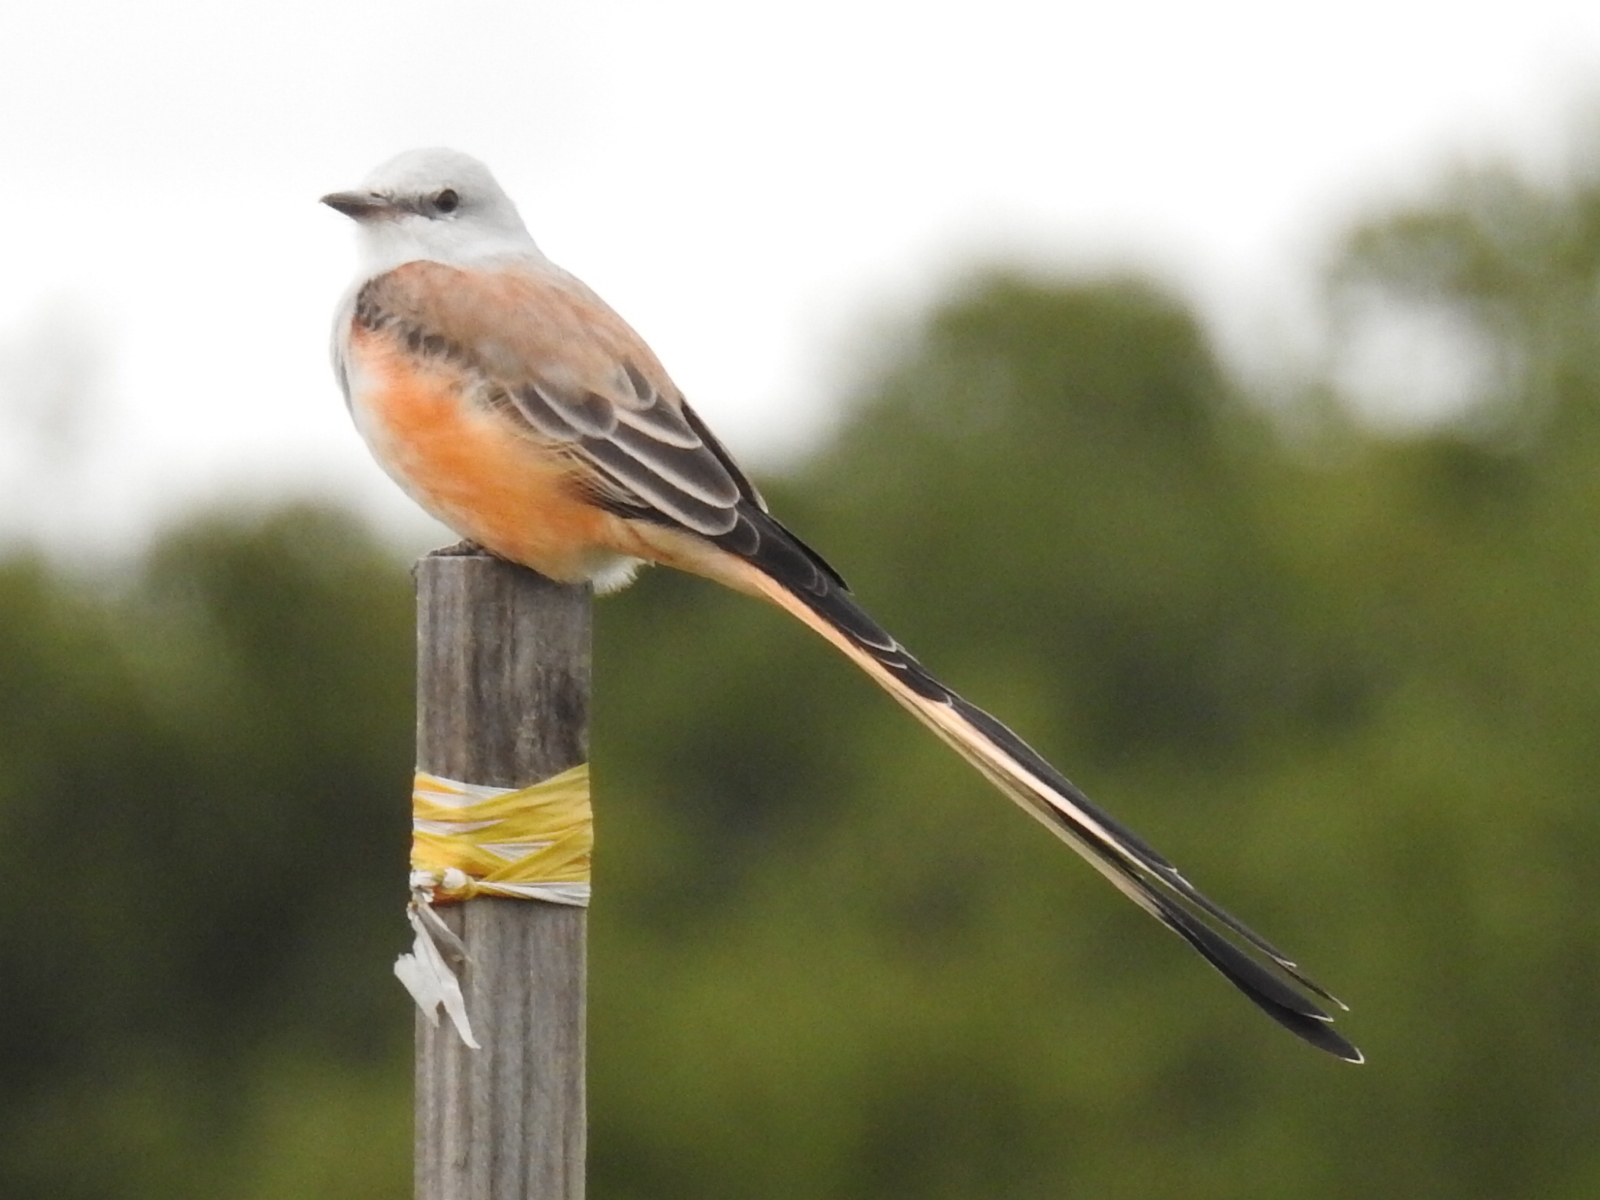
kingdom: Animalia
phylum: Chordata
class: Aves
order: Passeriformes
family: Tyrannidae
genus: Tyrannus
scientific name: Tyrannus forficatus
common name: Scissor-tailed flycatcher
